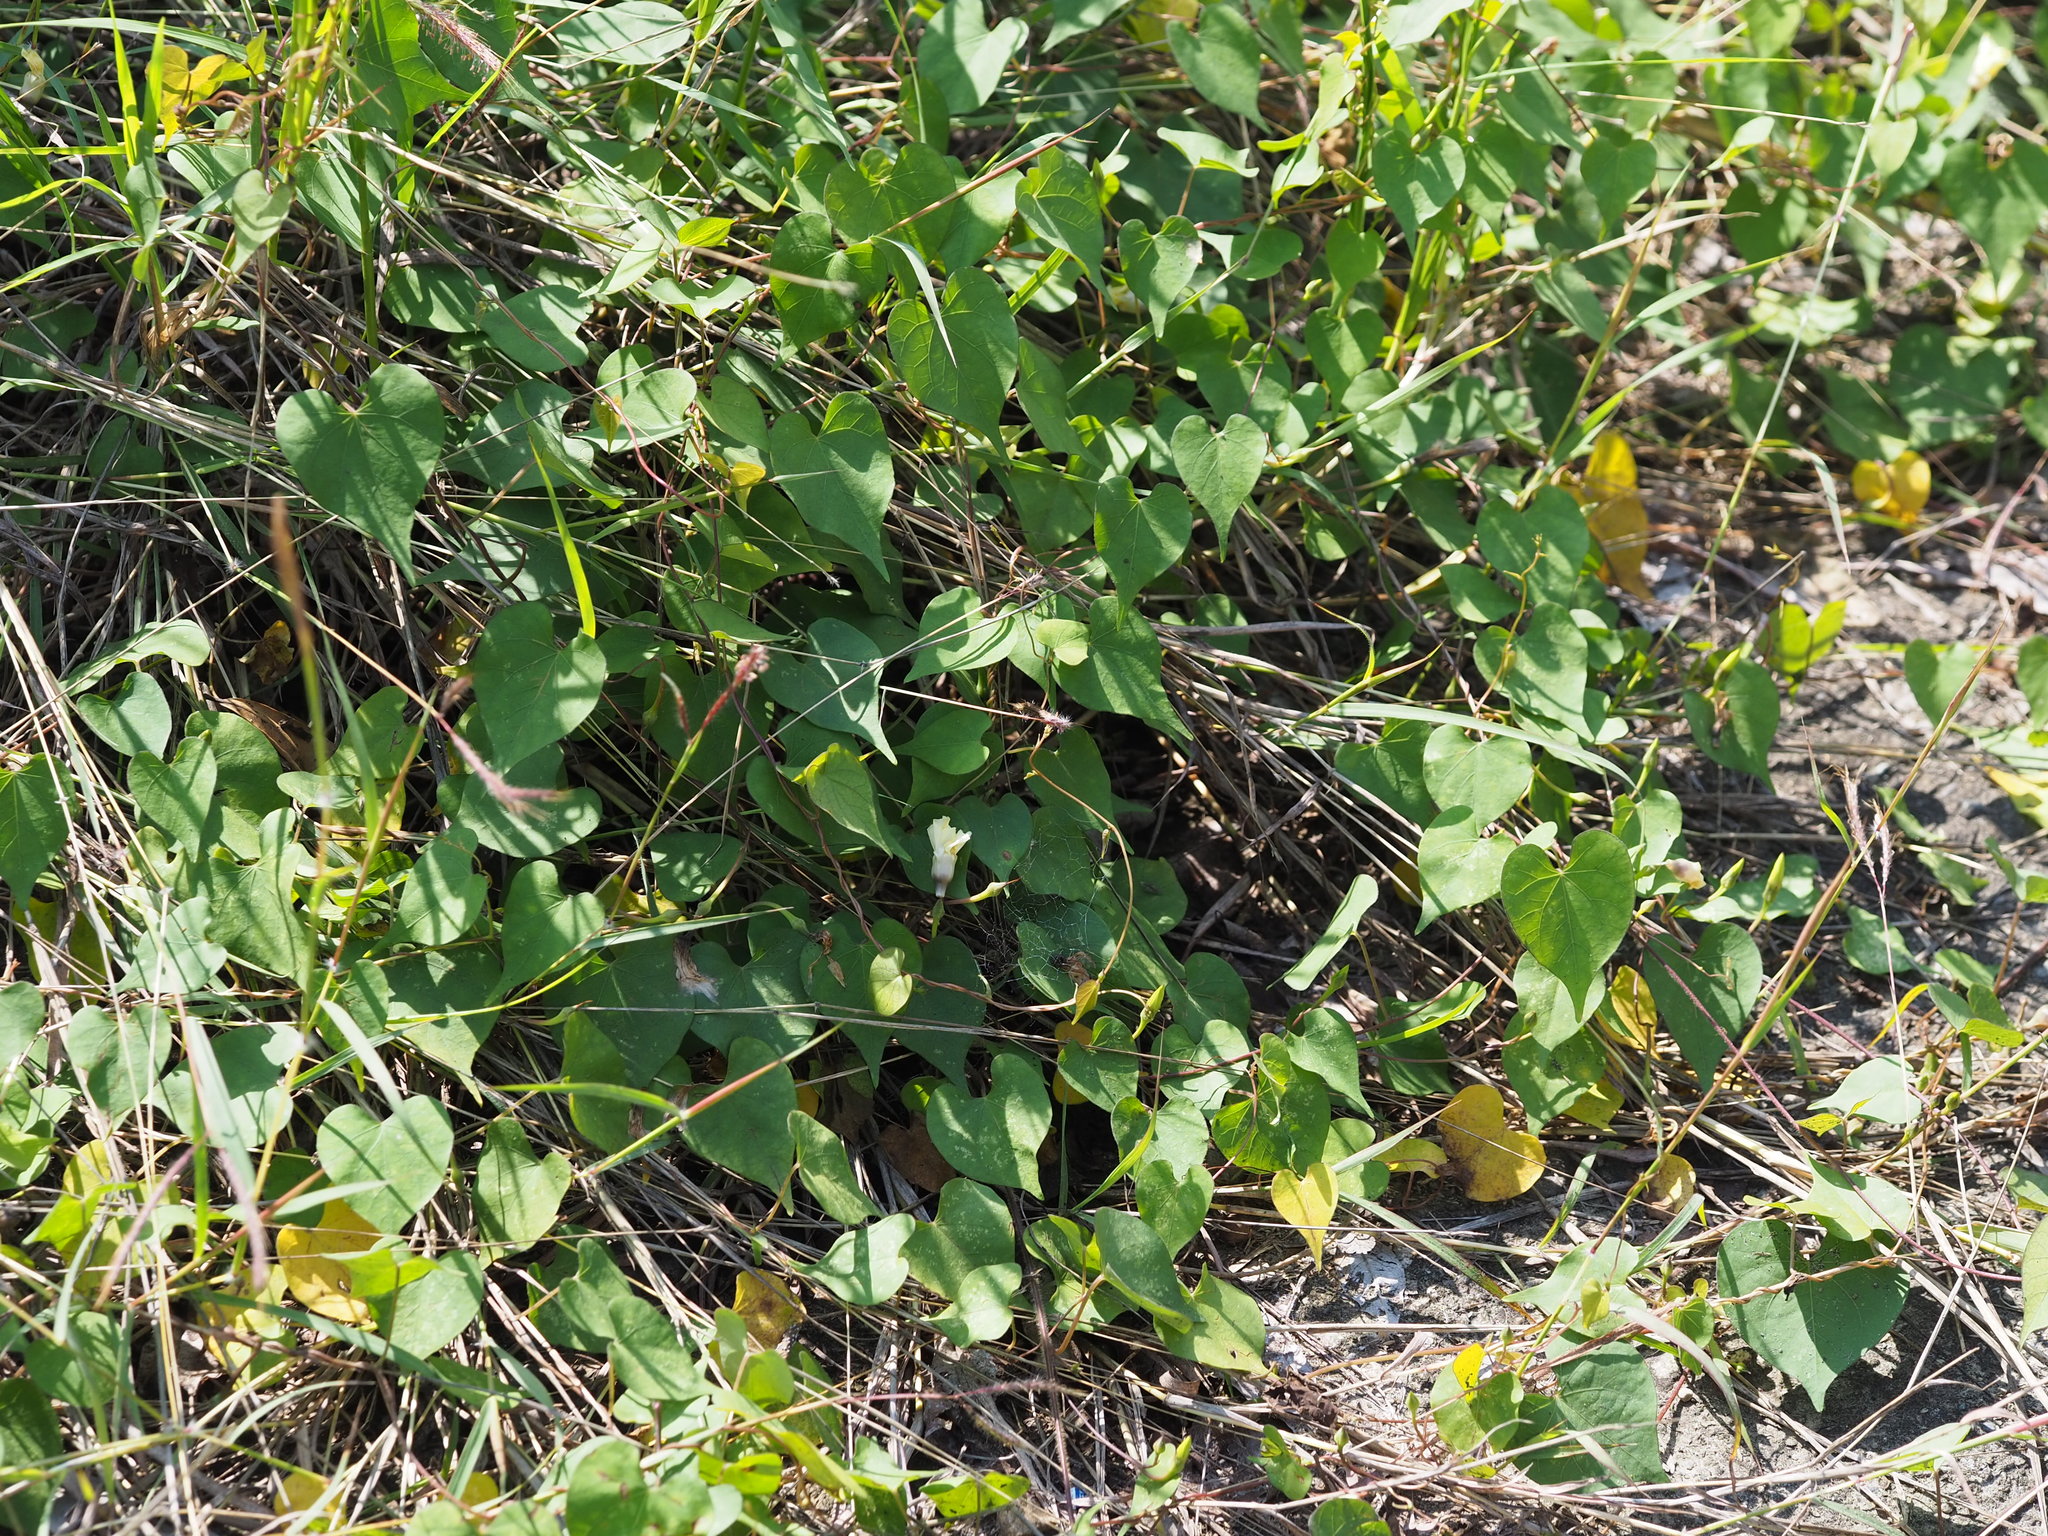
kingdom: Plantae
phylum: Tracheophyta
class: Magnoliopsida
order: Solanales
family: Convolvulaceae
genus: Ipomoea
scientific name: Ipomoea obscura
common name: Obscure morning-glory
